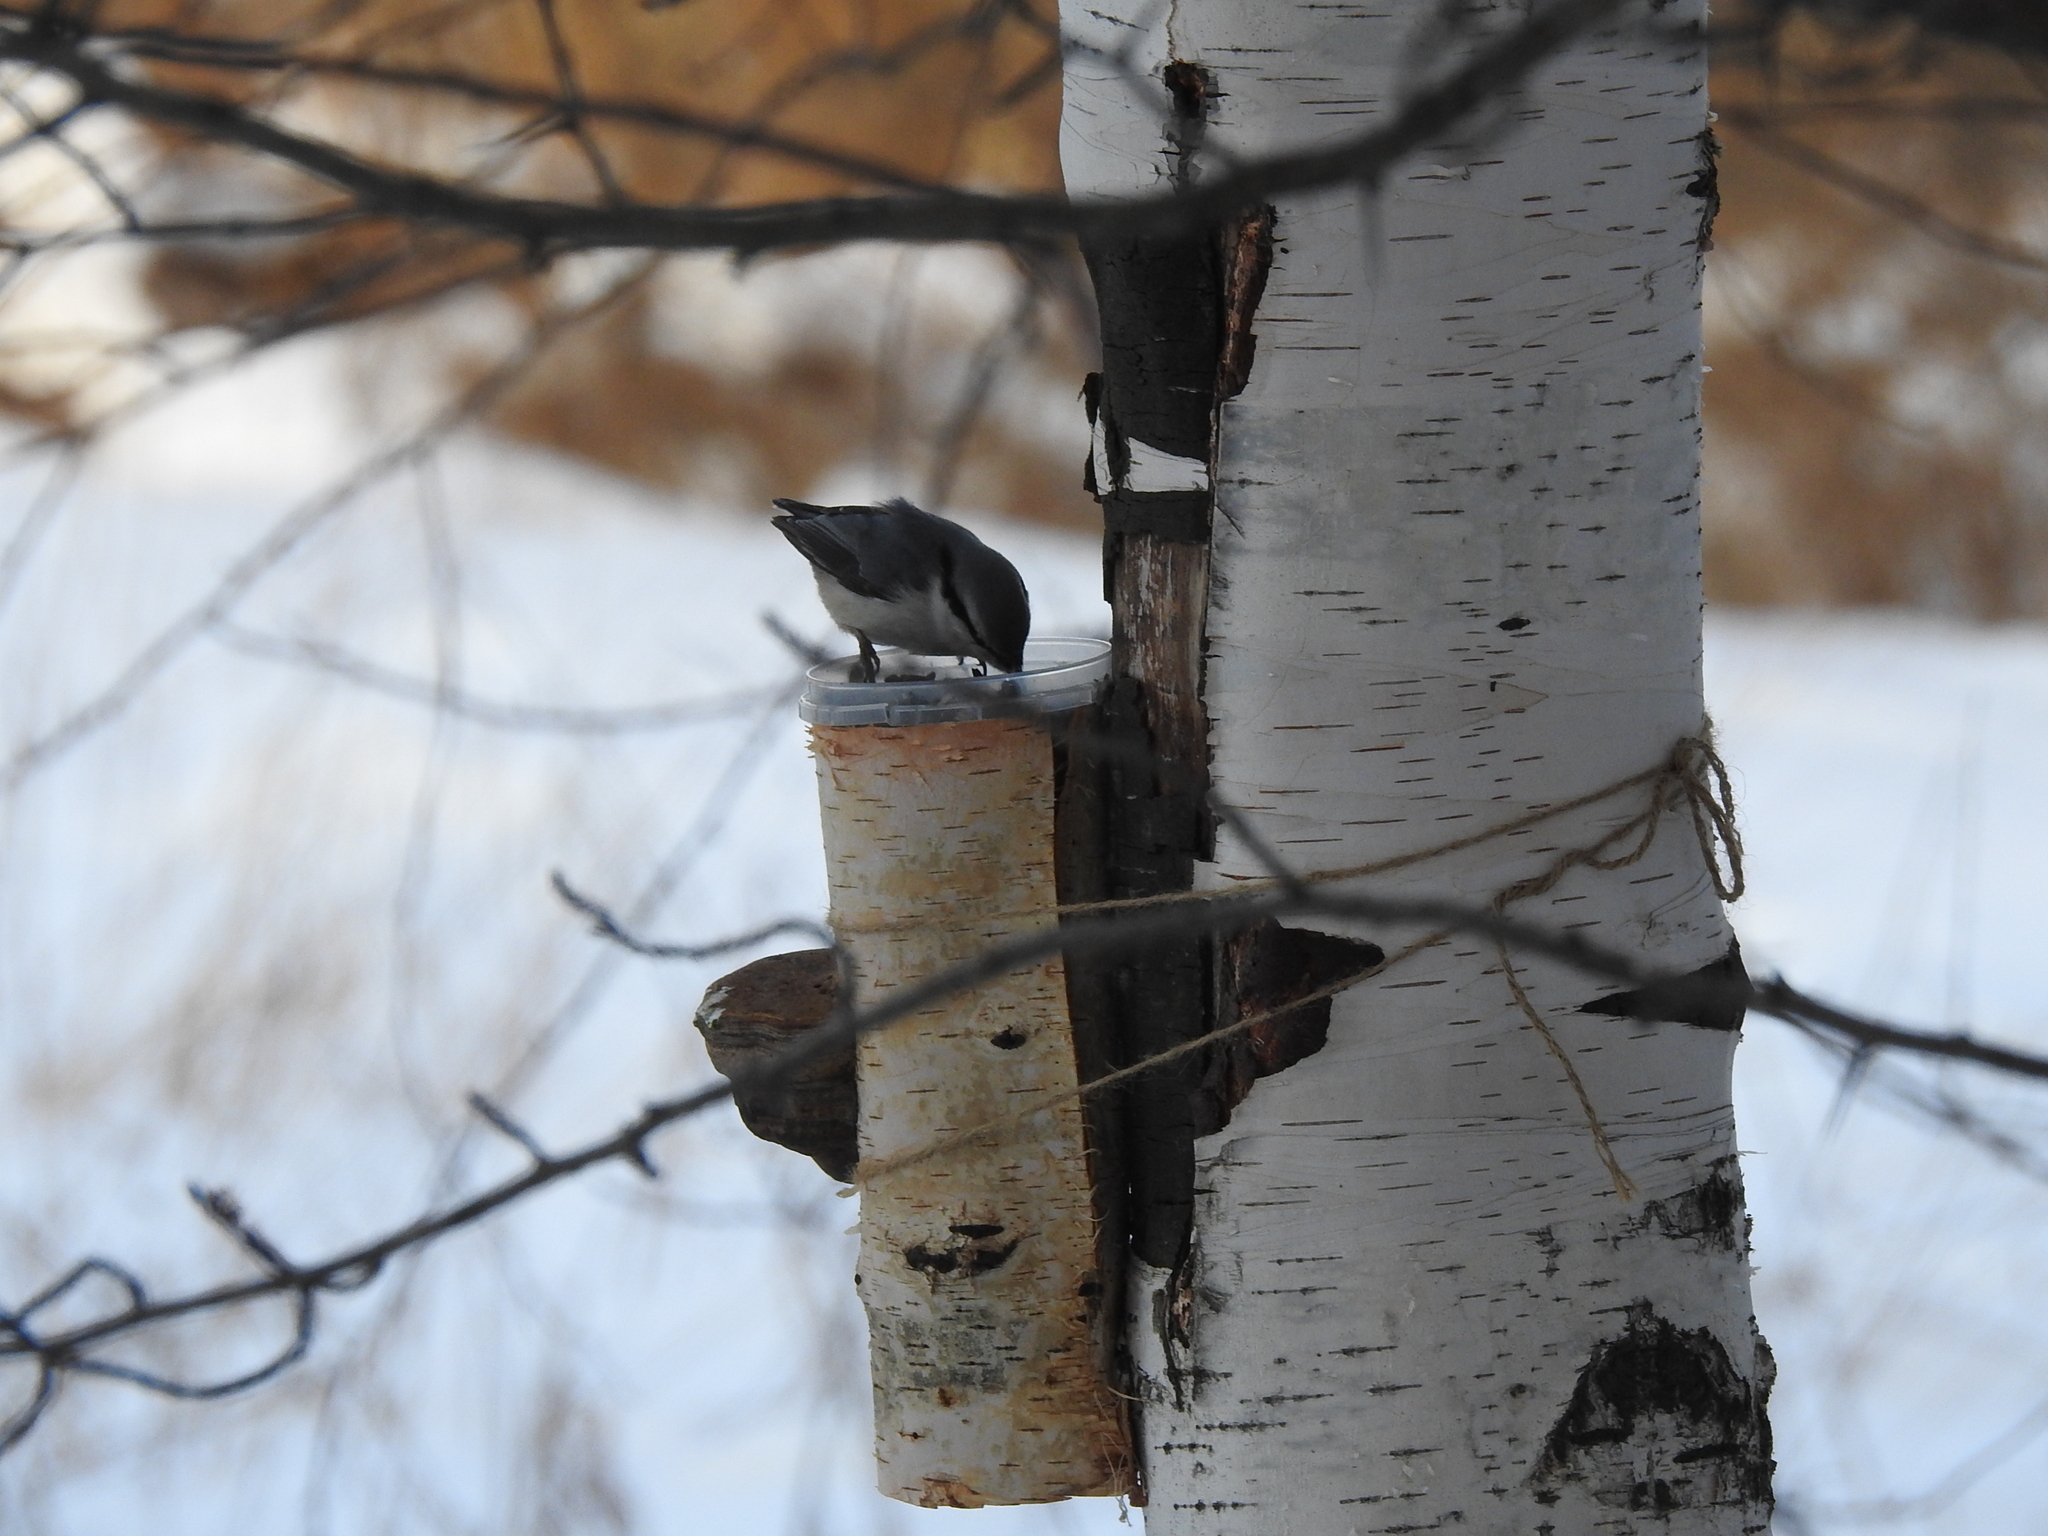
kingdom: Animalia
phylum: Chordata
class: Aves
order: Passeriformes
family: Sittidae
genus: Sitta
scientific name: Sitta europaea
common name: Eurasian nuthatch
